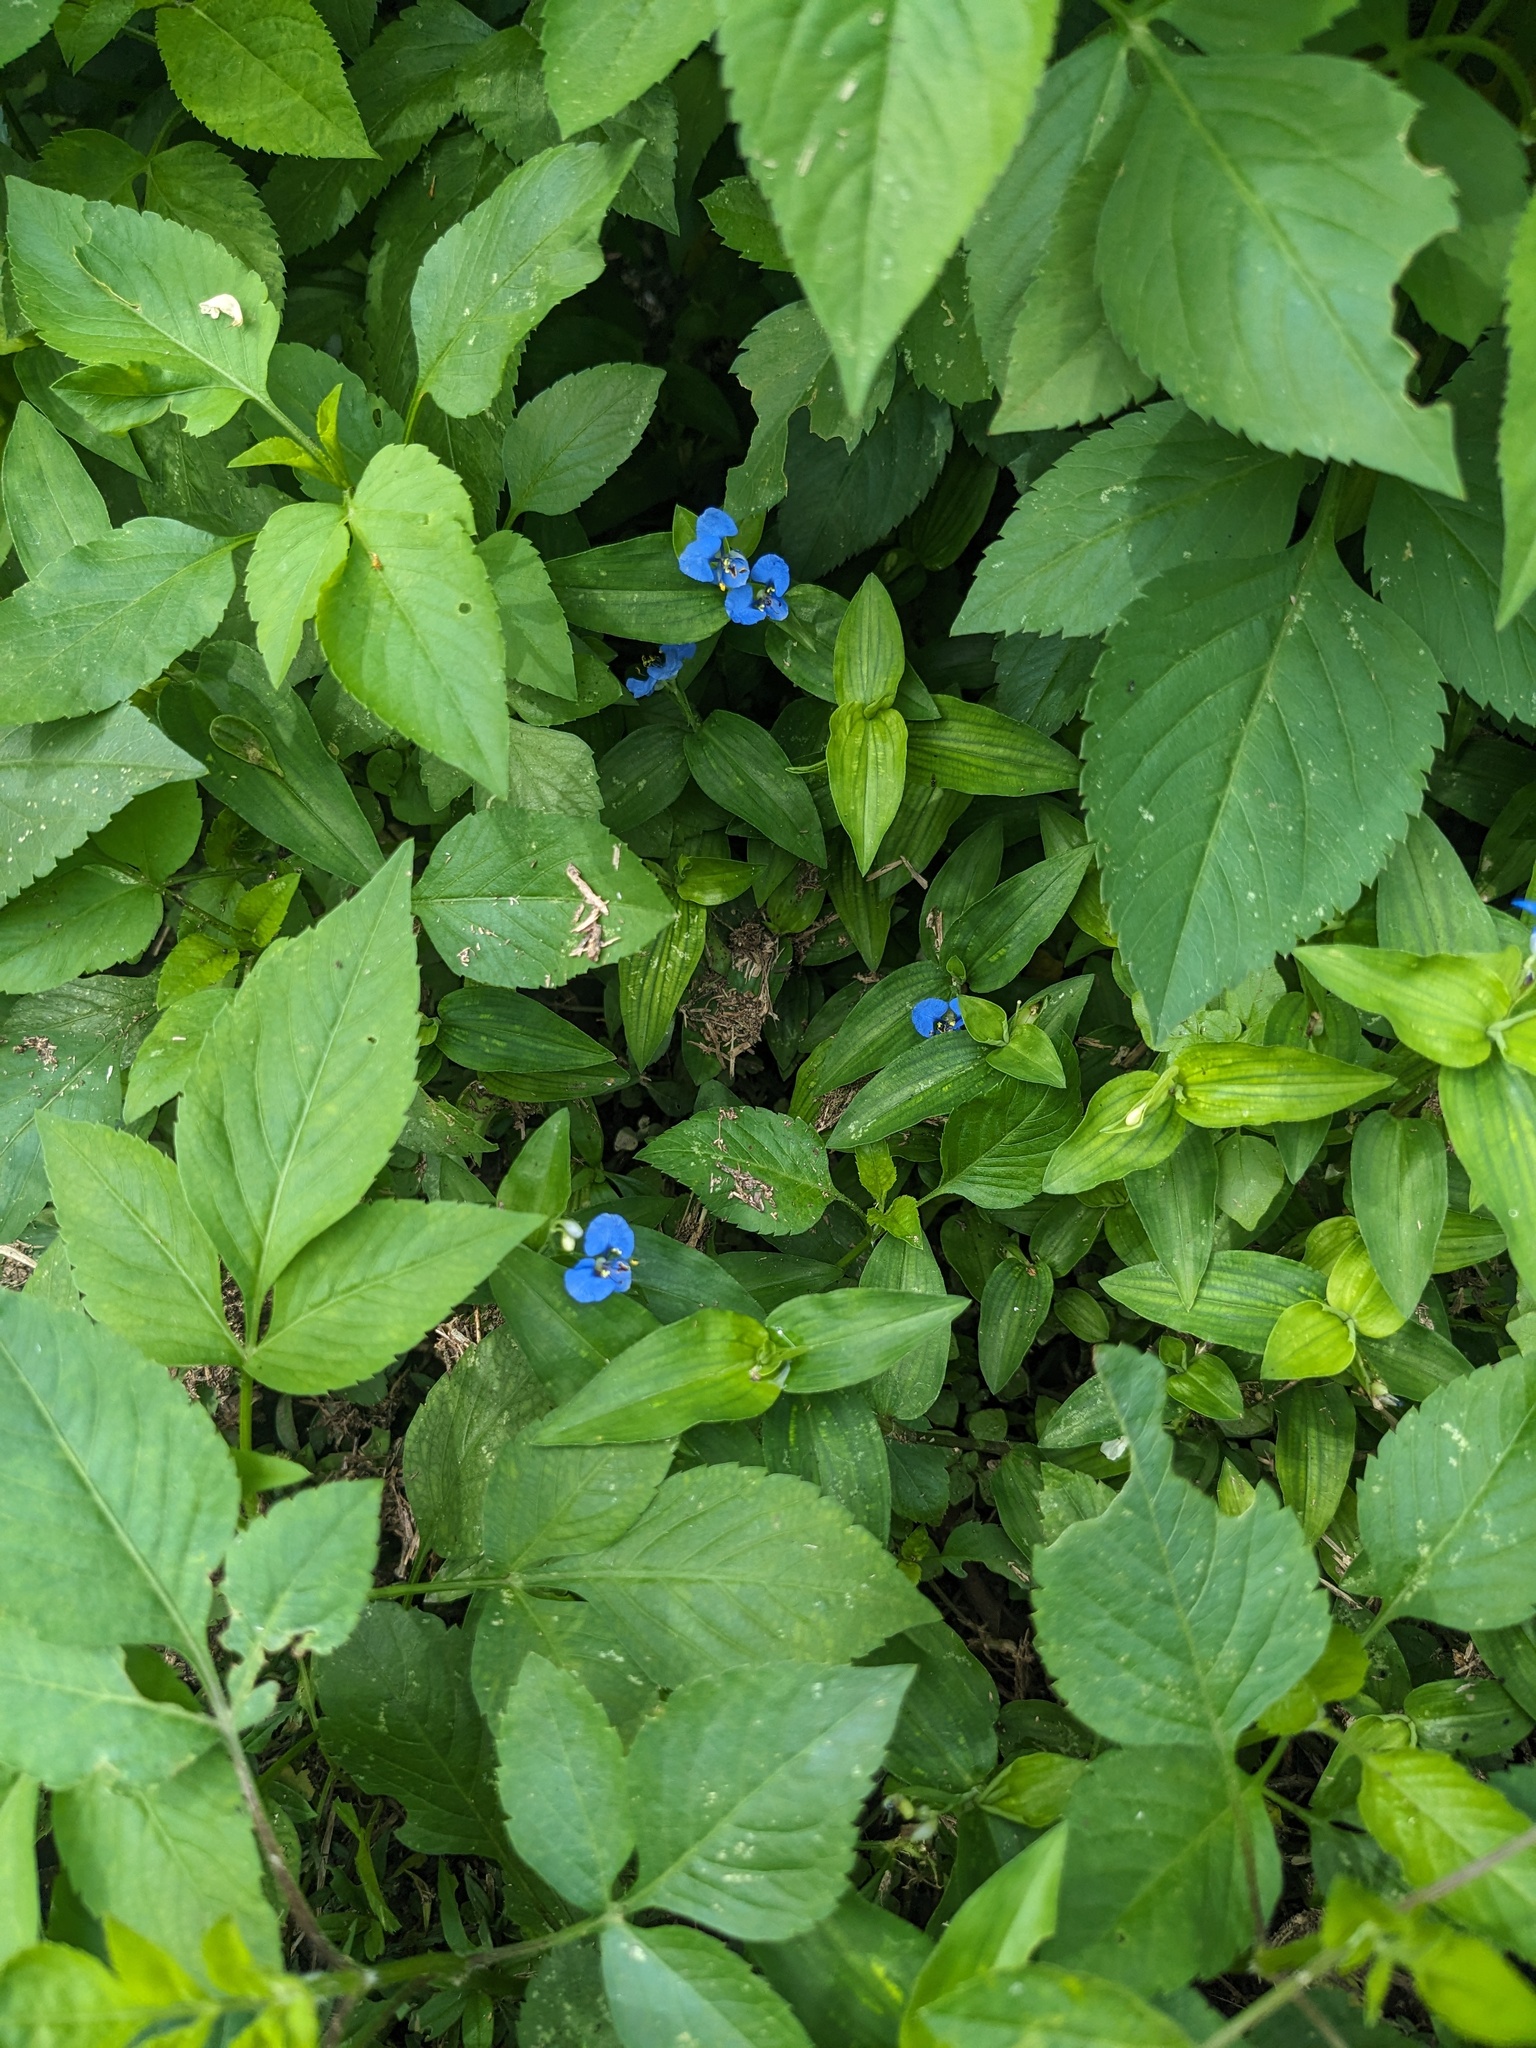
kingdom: Plantae
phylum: Tracheophyta
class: Liliopsida
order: Commelinales
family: Commelinaceae
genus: Commelina
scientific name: Commelina diffusa
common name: Climbing dayflower
